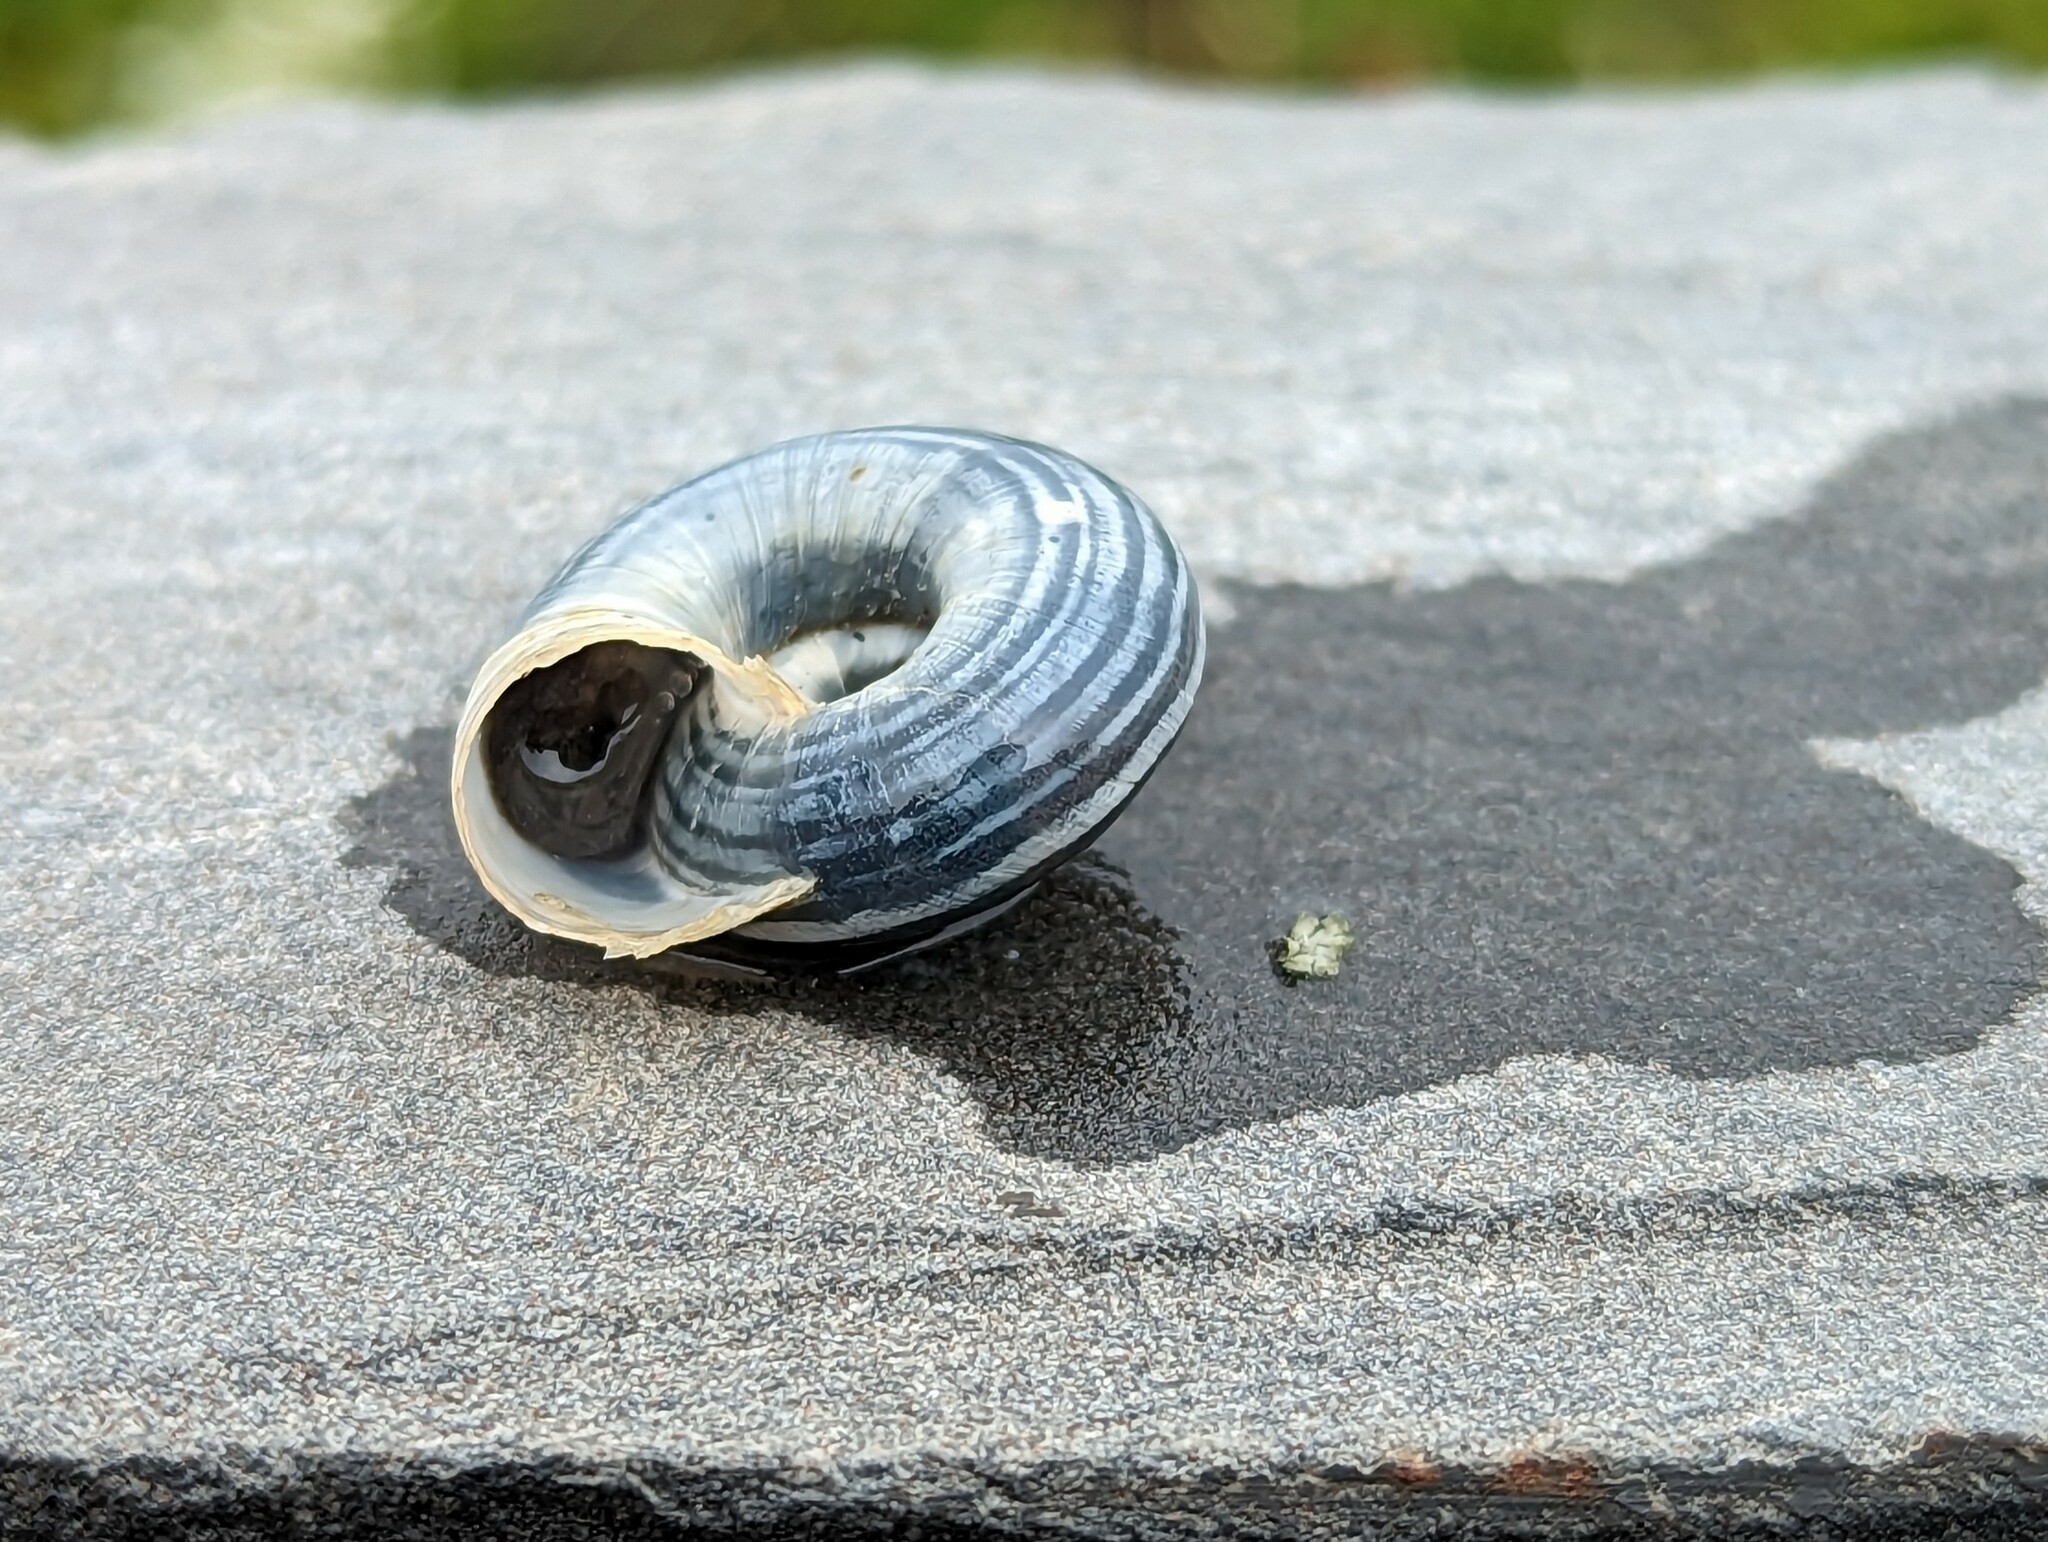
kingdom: Animalia
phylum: Mollusca
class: Gastropoda
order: Stylommatophora
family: Geomitridae
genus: Helicella
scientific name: Helicella itala
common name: Heath snail
